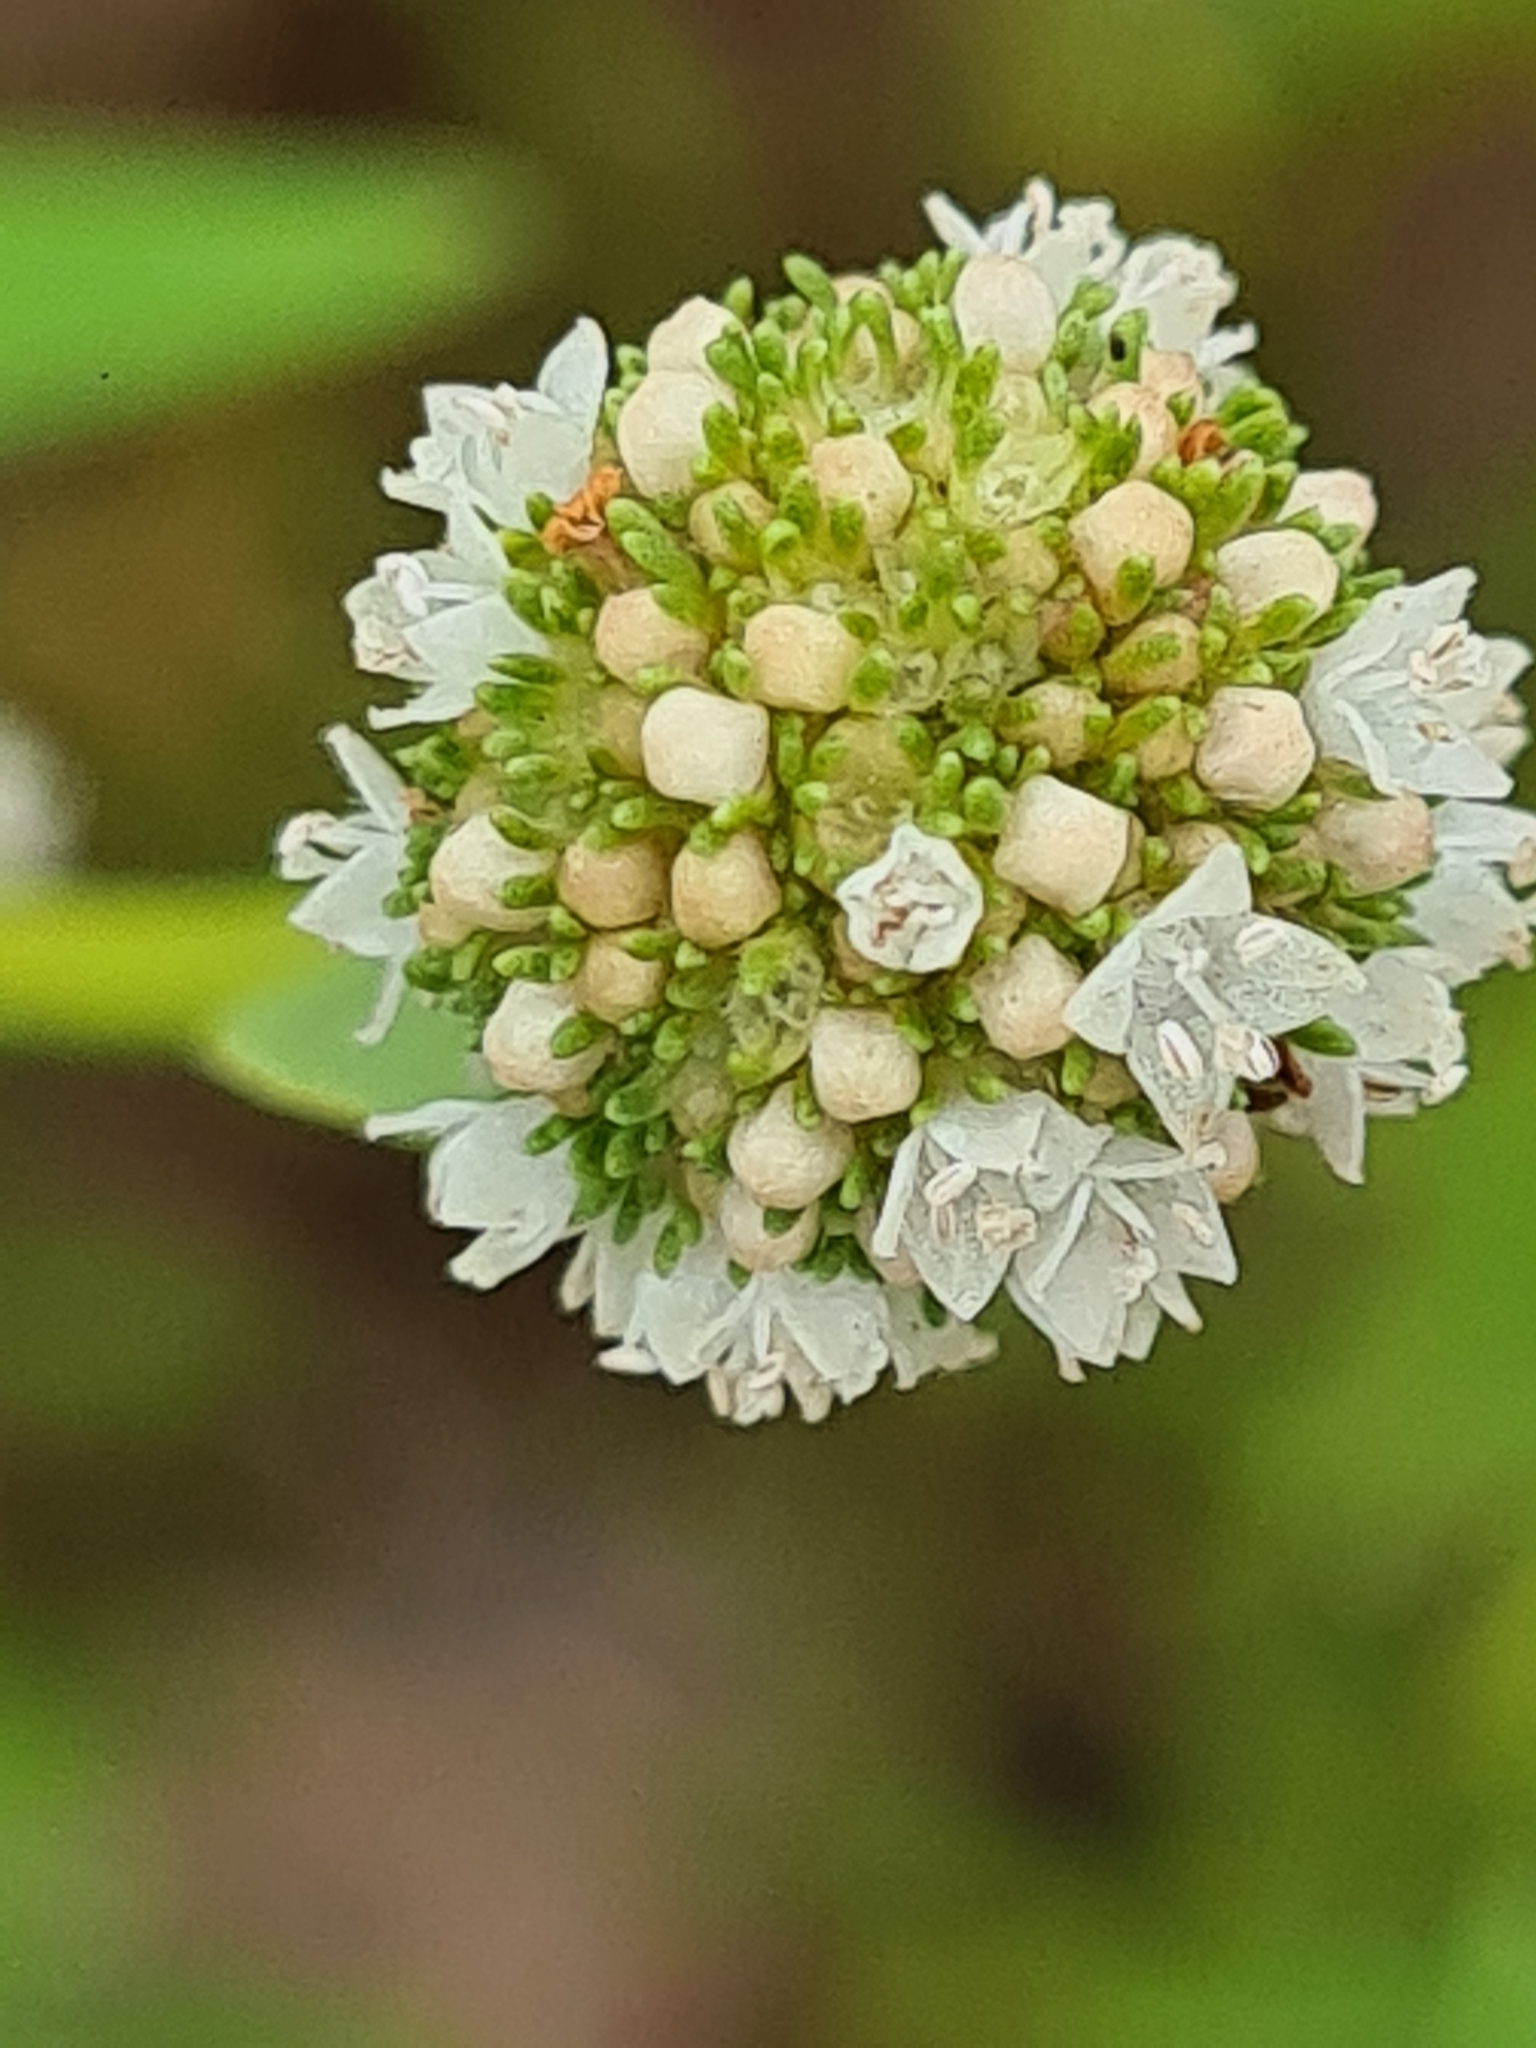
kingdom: Plantae
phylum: Tracheophyta
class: Magnoliopsida
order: Gentianales
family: Rubiaceae
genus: Spermacoce
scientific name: Spermacoce verticillata
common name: Shrubby false buttonweed
